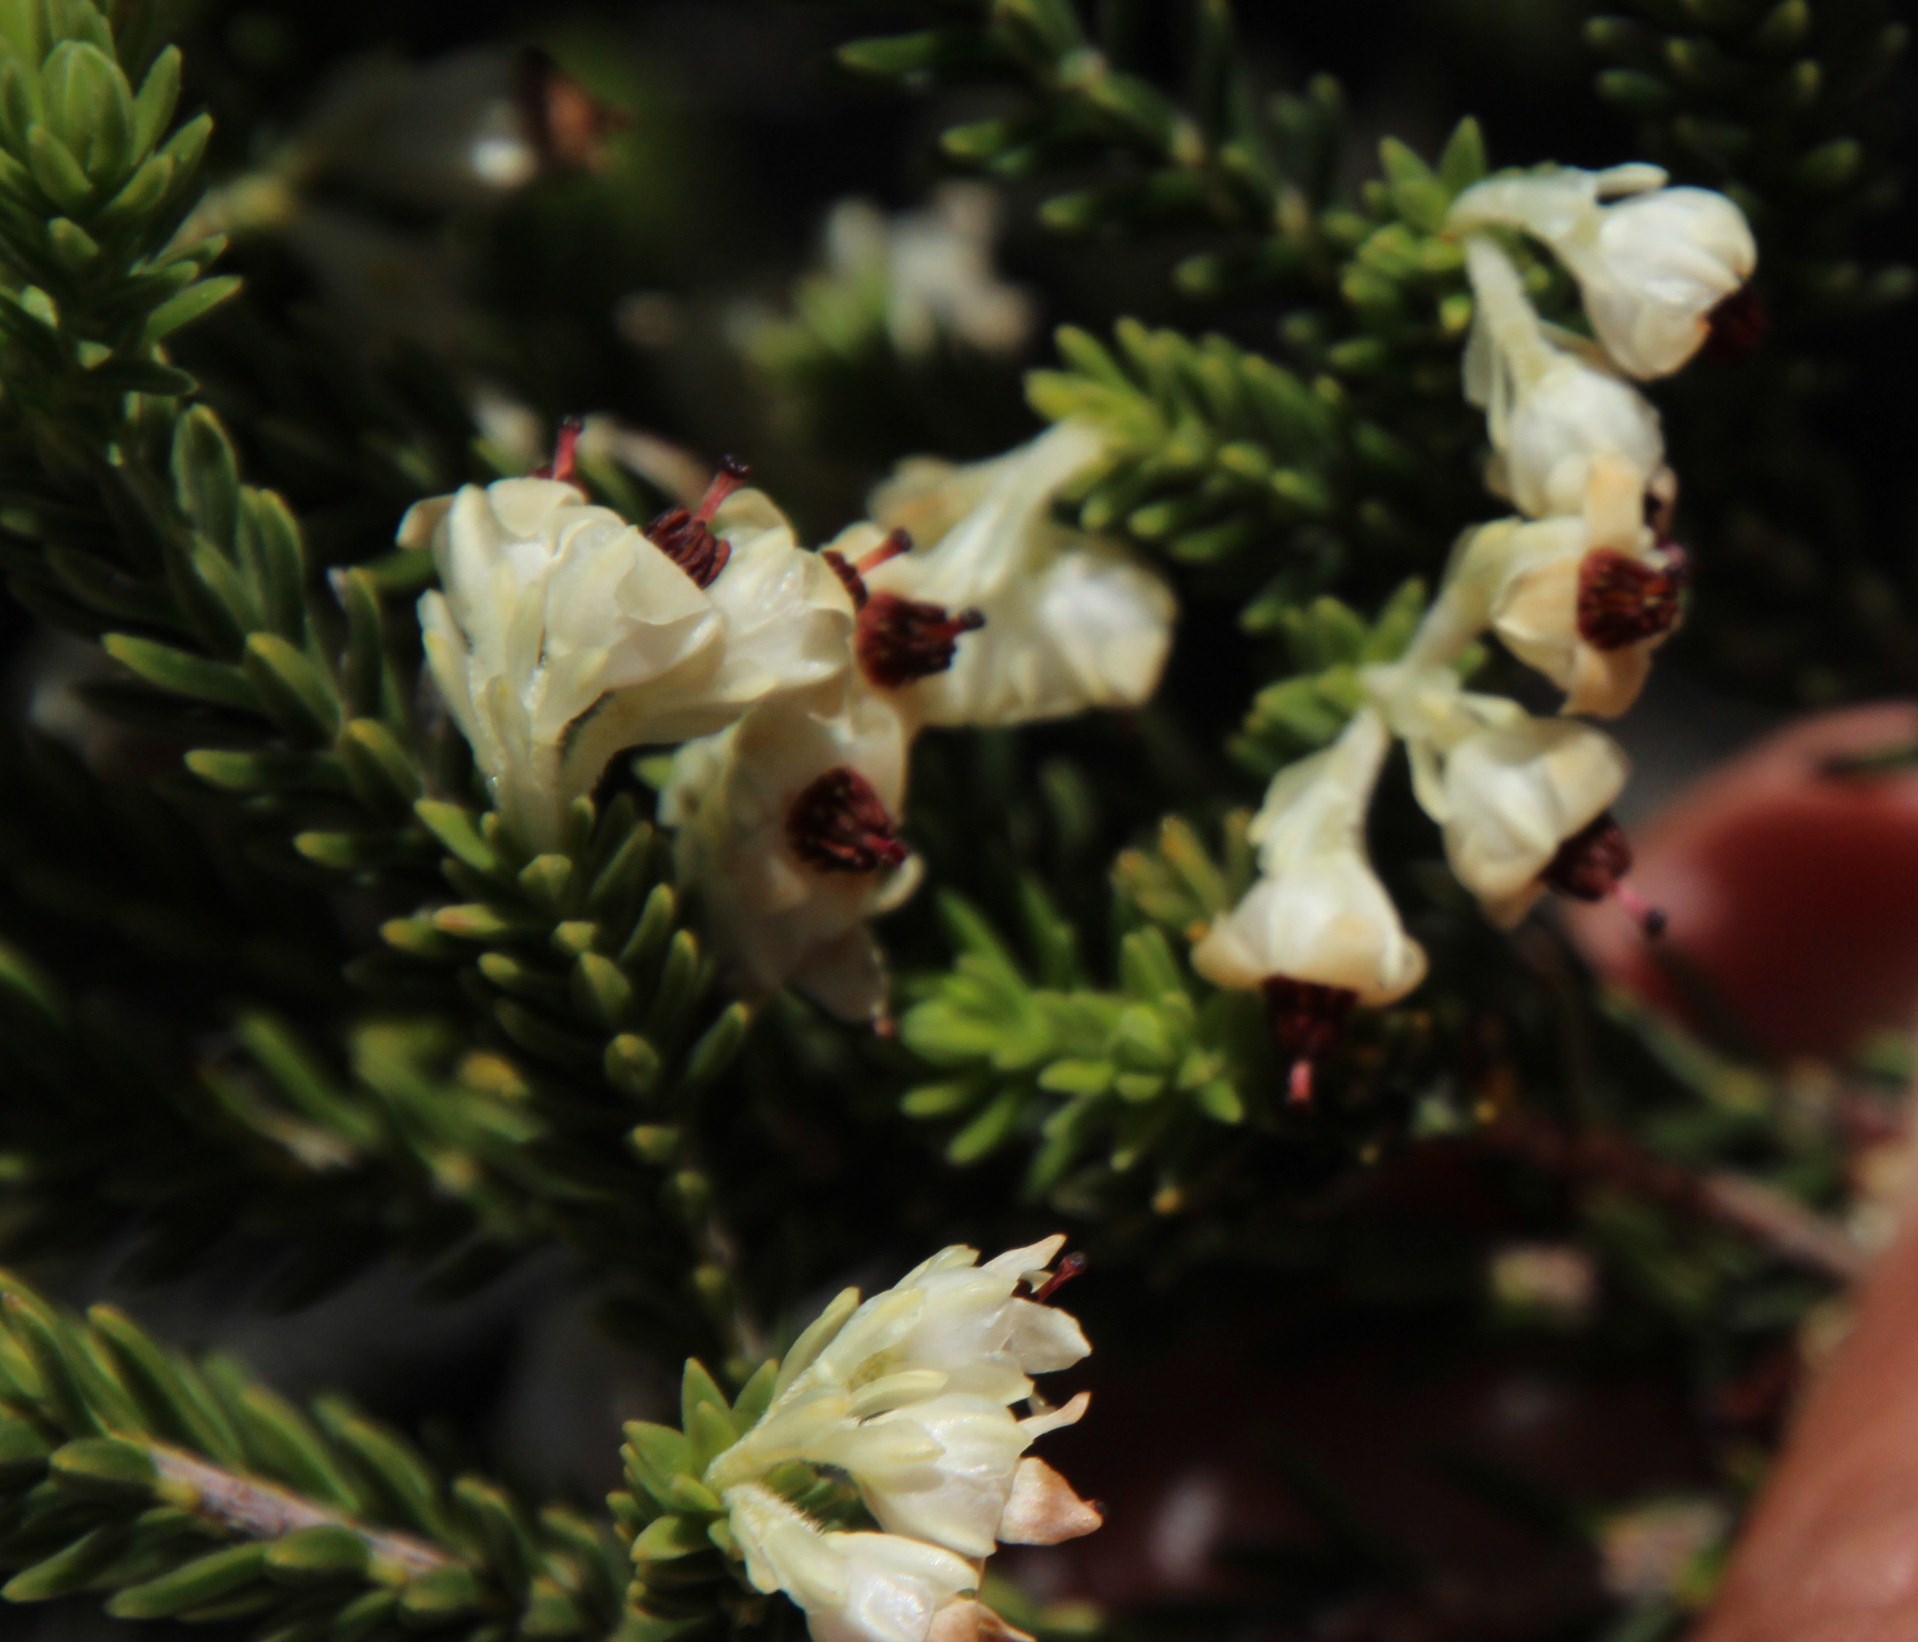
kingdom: Plantae
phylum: Tracheophyta
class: Magnoliopsida
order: Ericales
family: Ericaceae
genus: Erica
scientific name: Erica calycina
